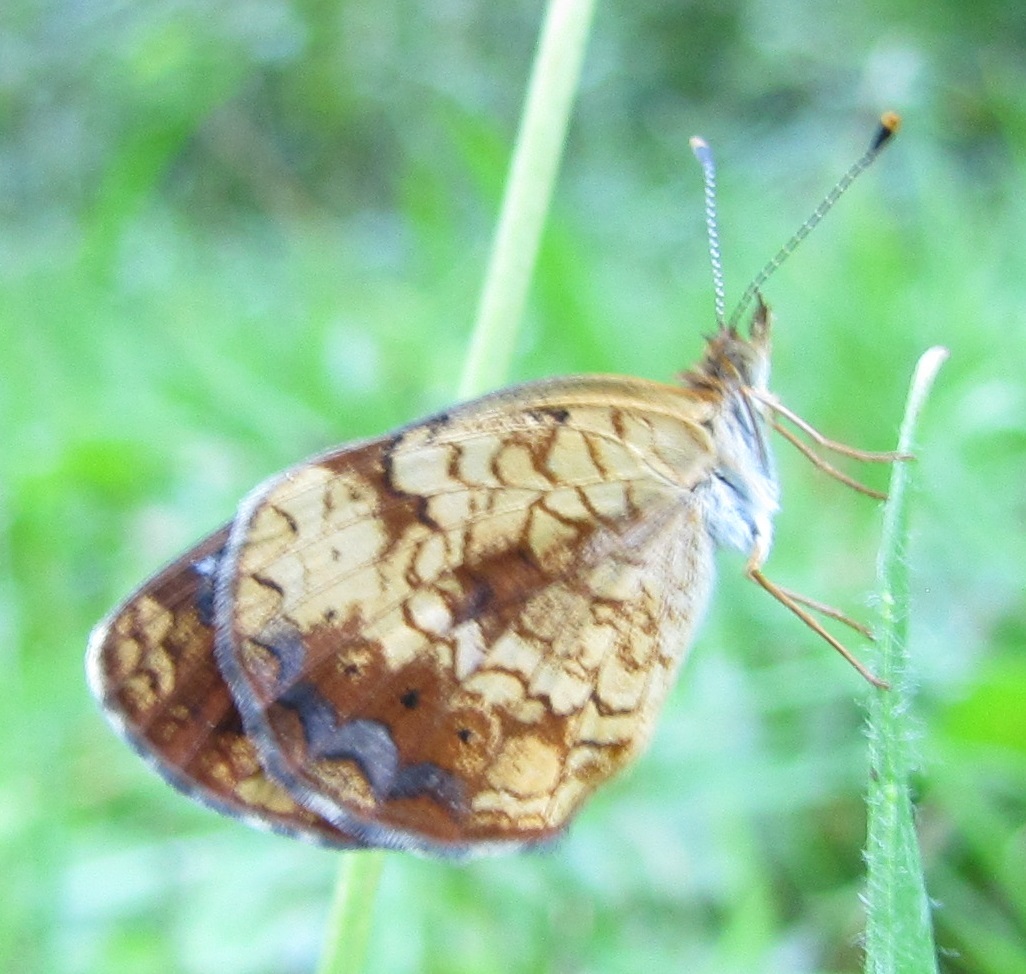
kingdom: Animalia
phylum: Arthropoda
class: Insecta
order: Lepidoptera
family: Nymphalidae
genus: Phyciodes
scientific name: Phyciodes tharos
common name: Pearl crescent
